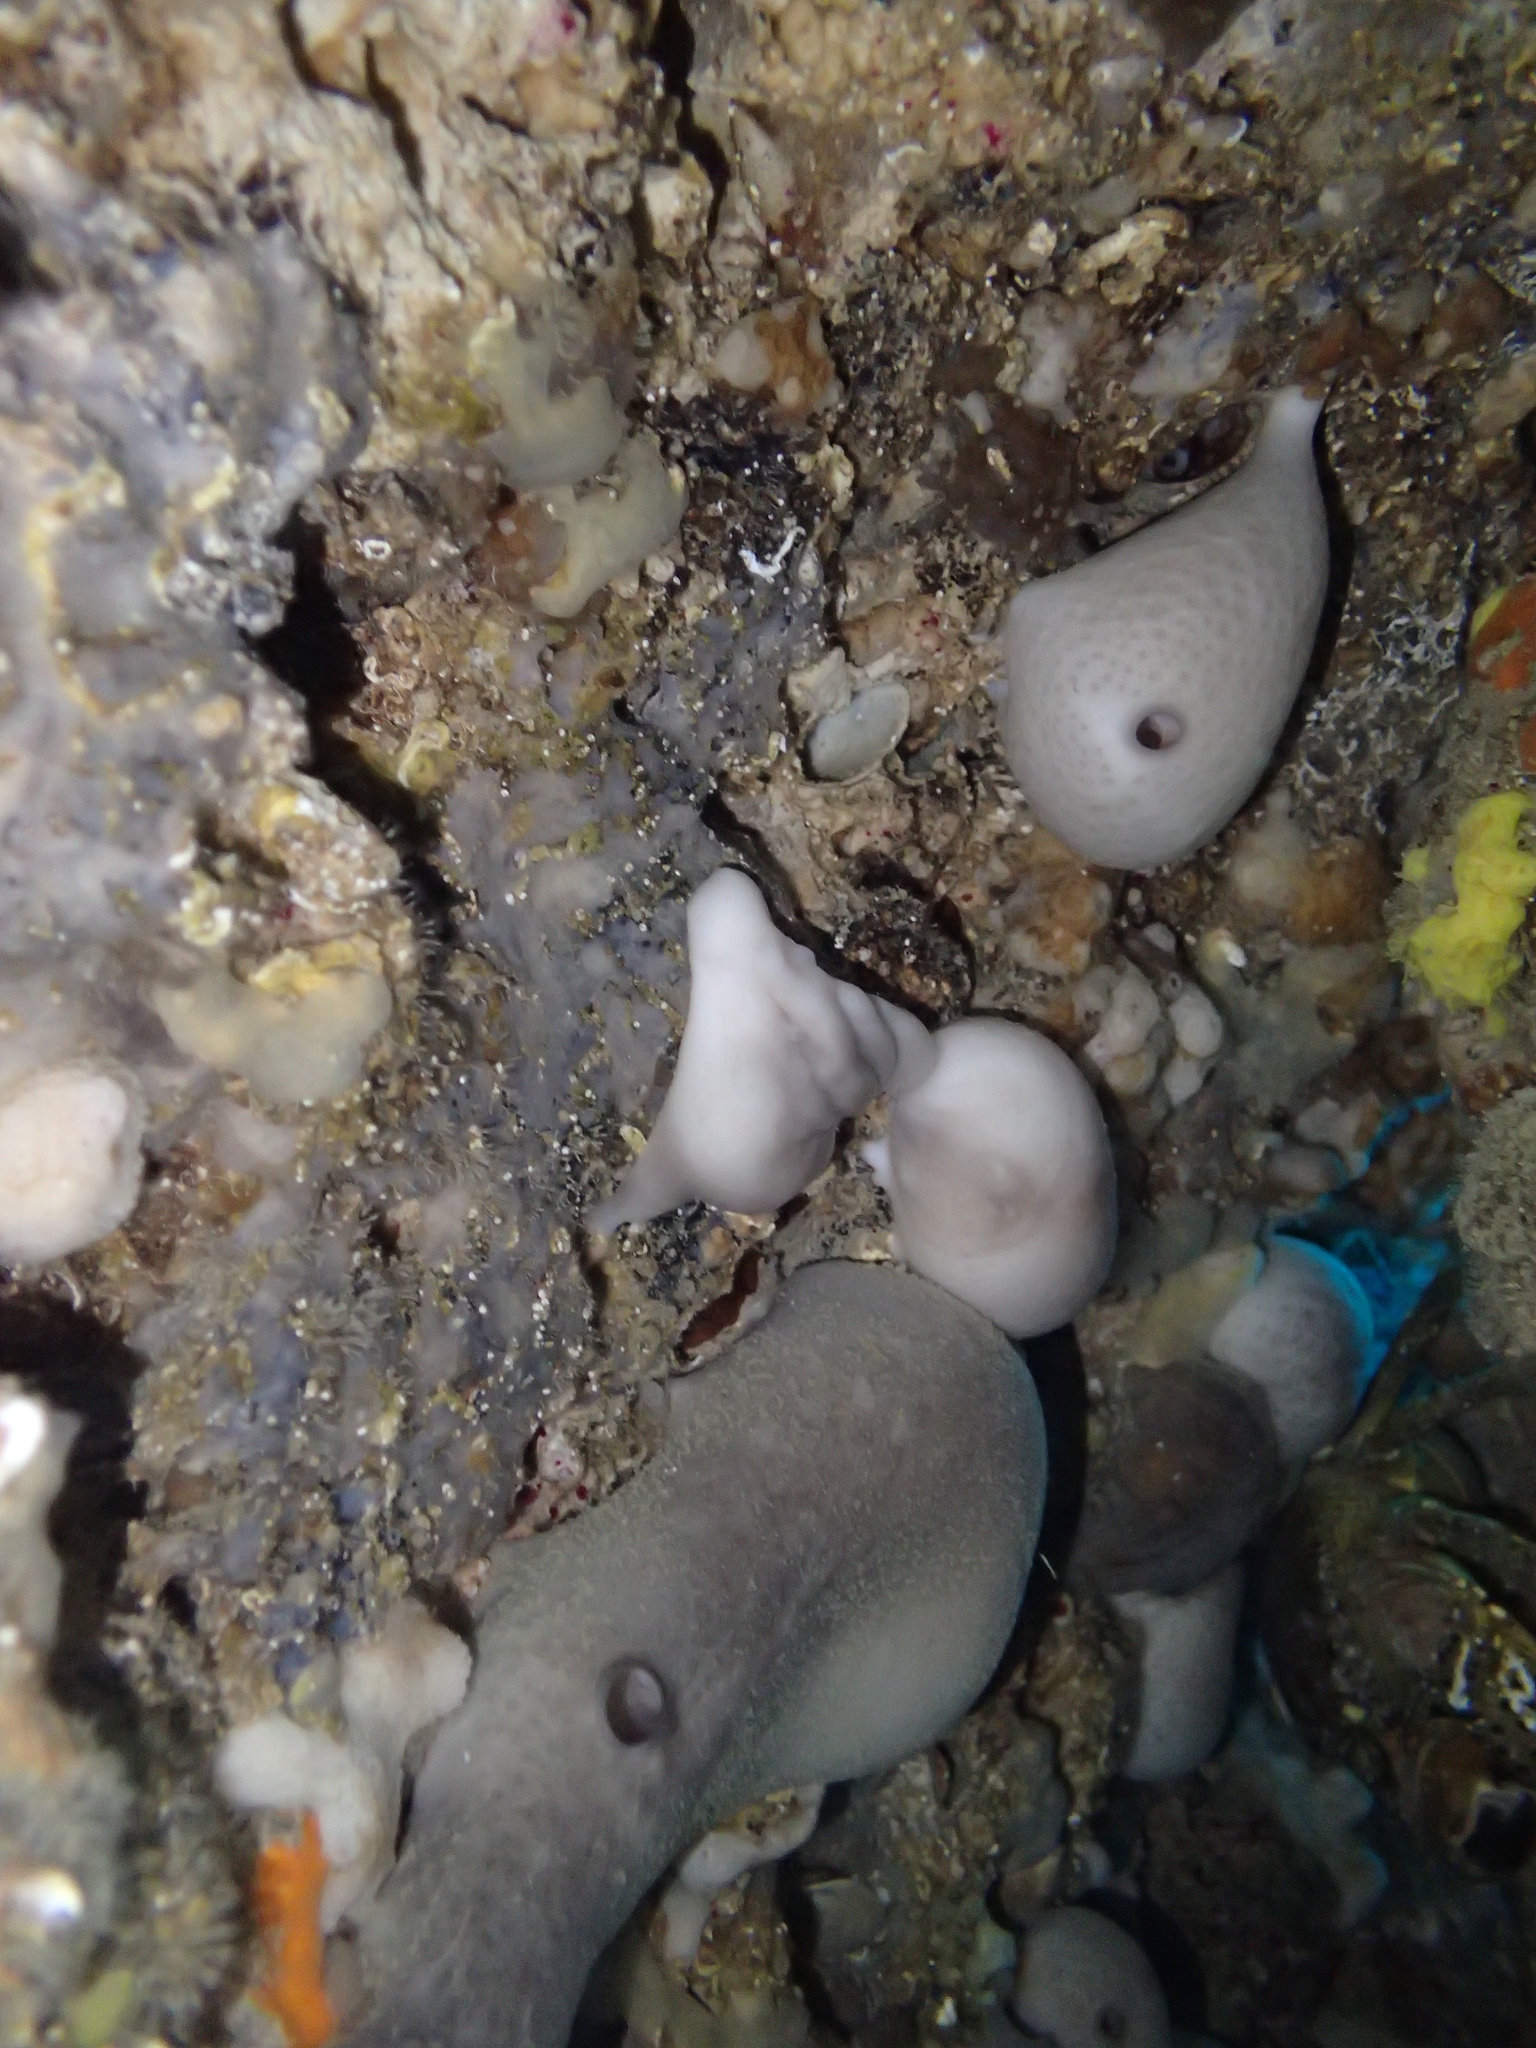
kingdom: Animalia
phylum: Porifera
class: Demospongiae
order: Chondrosiida
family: Chondrosiidae
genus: Chondrosia
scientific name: Chondrosia reniformis
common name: Chicken liver sponge
